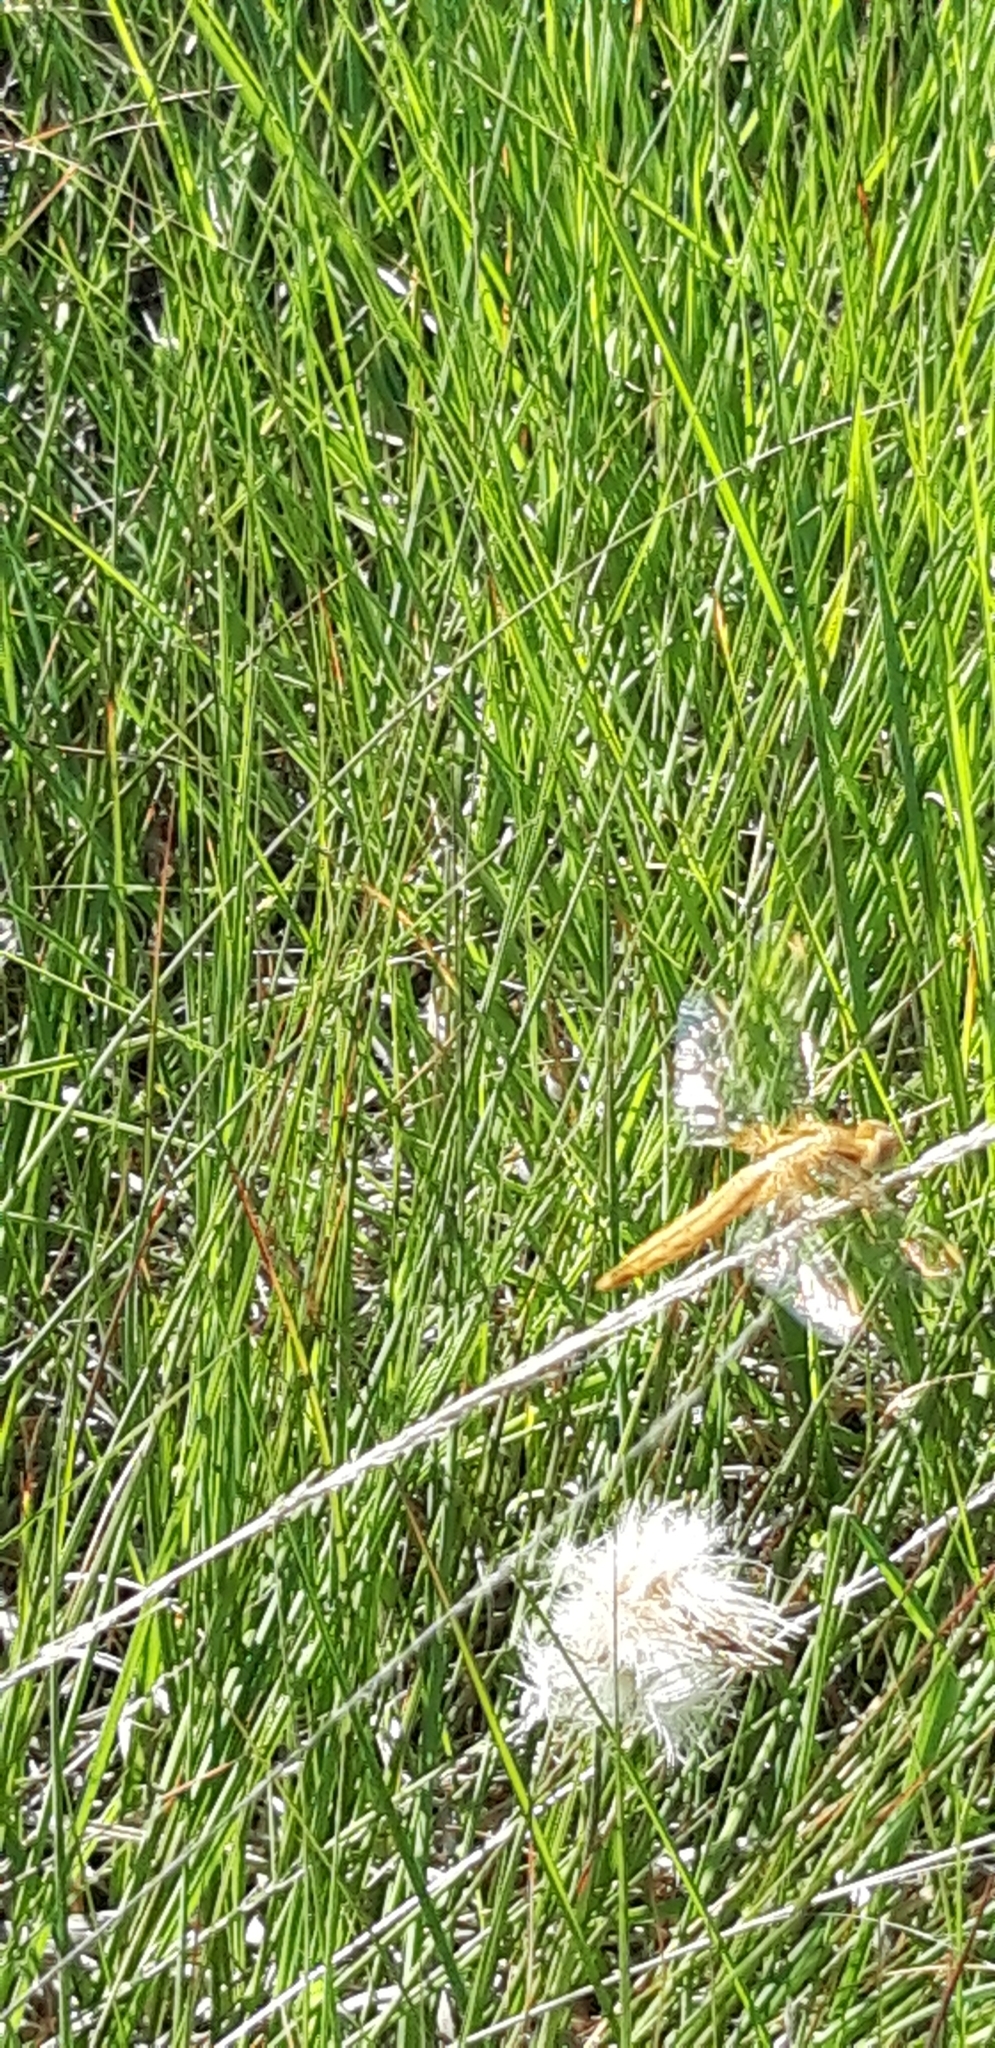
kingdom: Animalia
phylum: Arthropoda
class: Insecta
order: Odonata
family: Libellulidae
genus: Crocothemis
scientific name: Crocothemis erythraea
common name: Scarlet dragonfly
